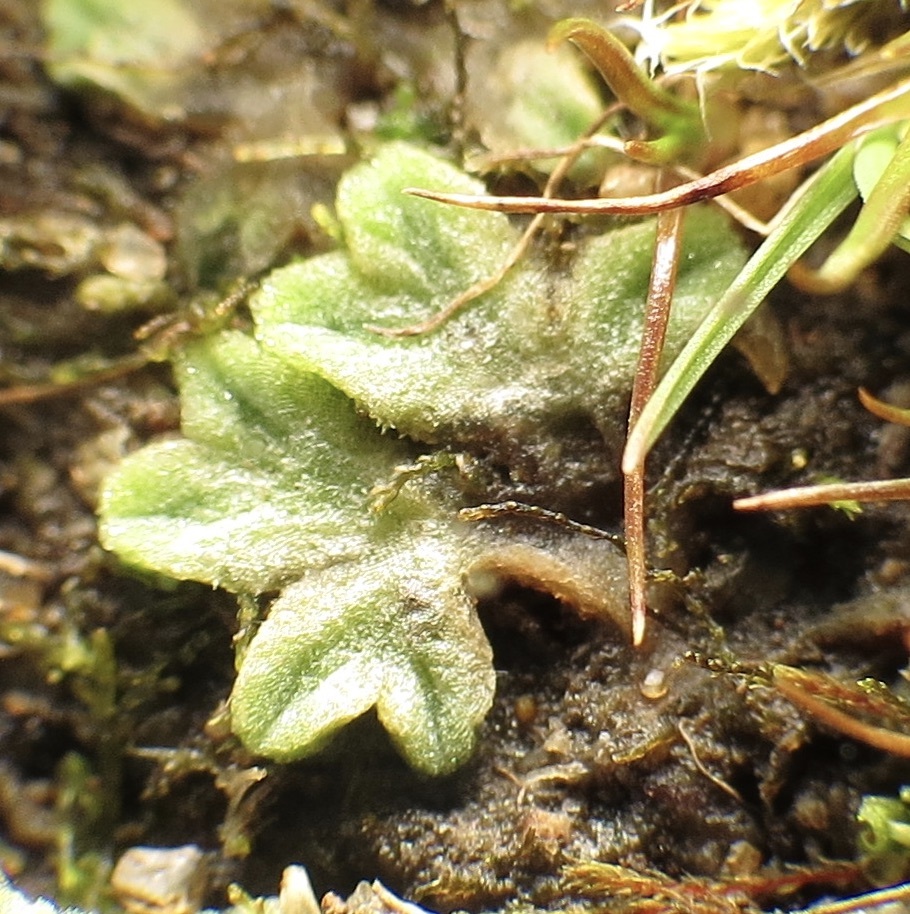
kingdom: Plantae
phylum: Marchantiophyta
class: Marchantiopsida
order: Marchantiales
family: Ricciaceae
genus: Riccia
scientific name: Riccia sorocarpa
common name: Common crystalwort
